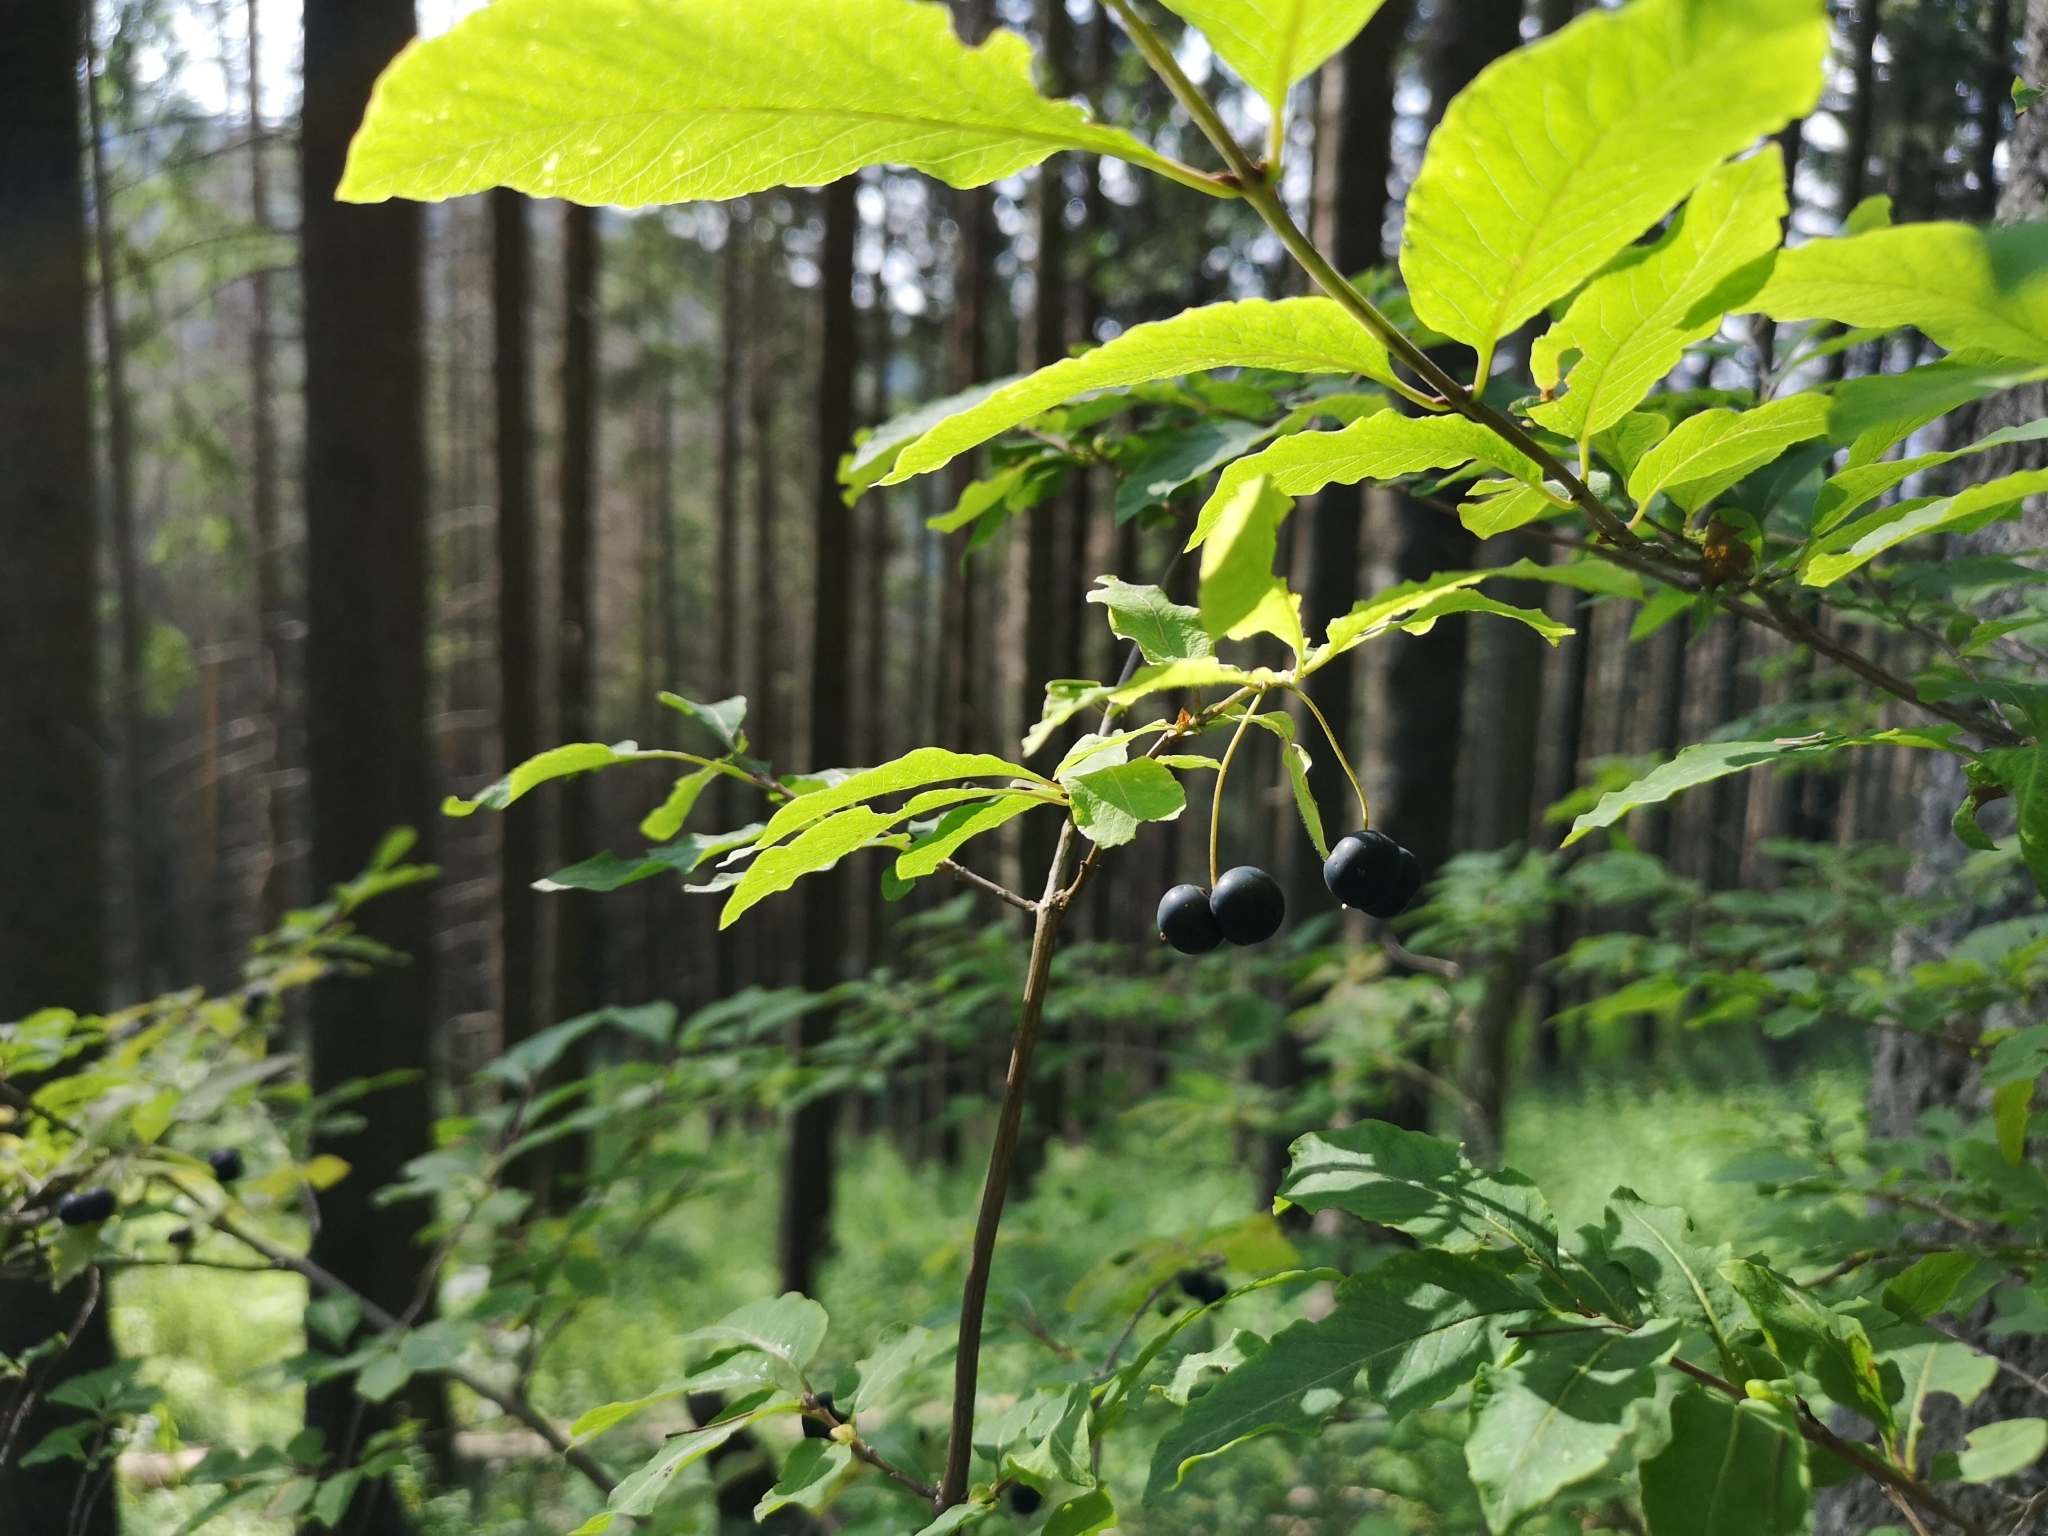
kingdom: Plantae
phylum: Tracheophyta
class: Magnoliopsida
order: Dipsacales
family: Caprifoliaceae
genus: Lonicera
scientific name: Lonicera nigra
